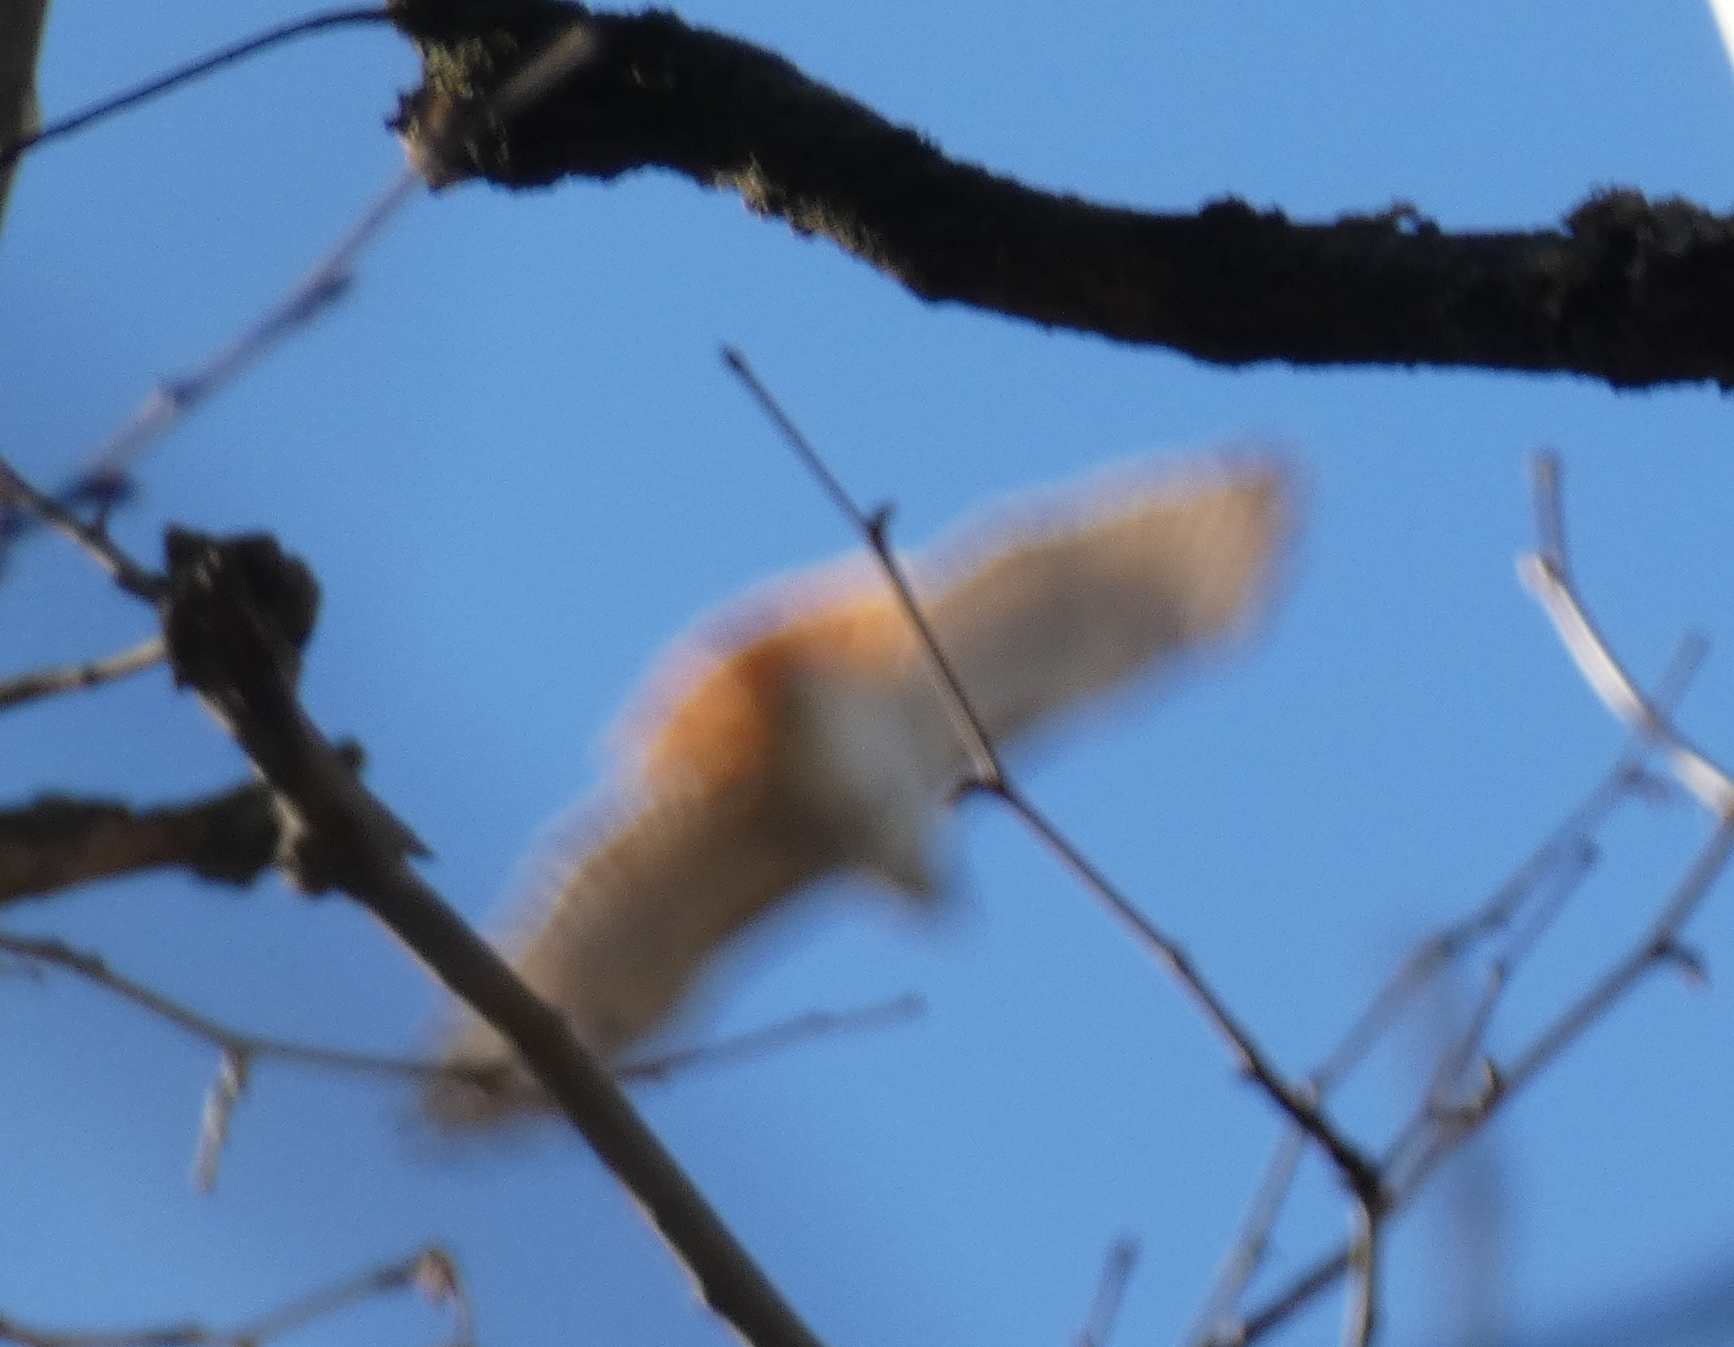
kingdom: Animalia
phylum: Chordata
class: Aves
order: Accipitriformes
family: Accipitridae
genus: Buteo
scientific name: Buteo jamaicensis
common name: Red-tailed hawk
